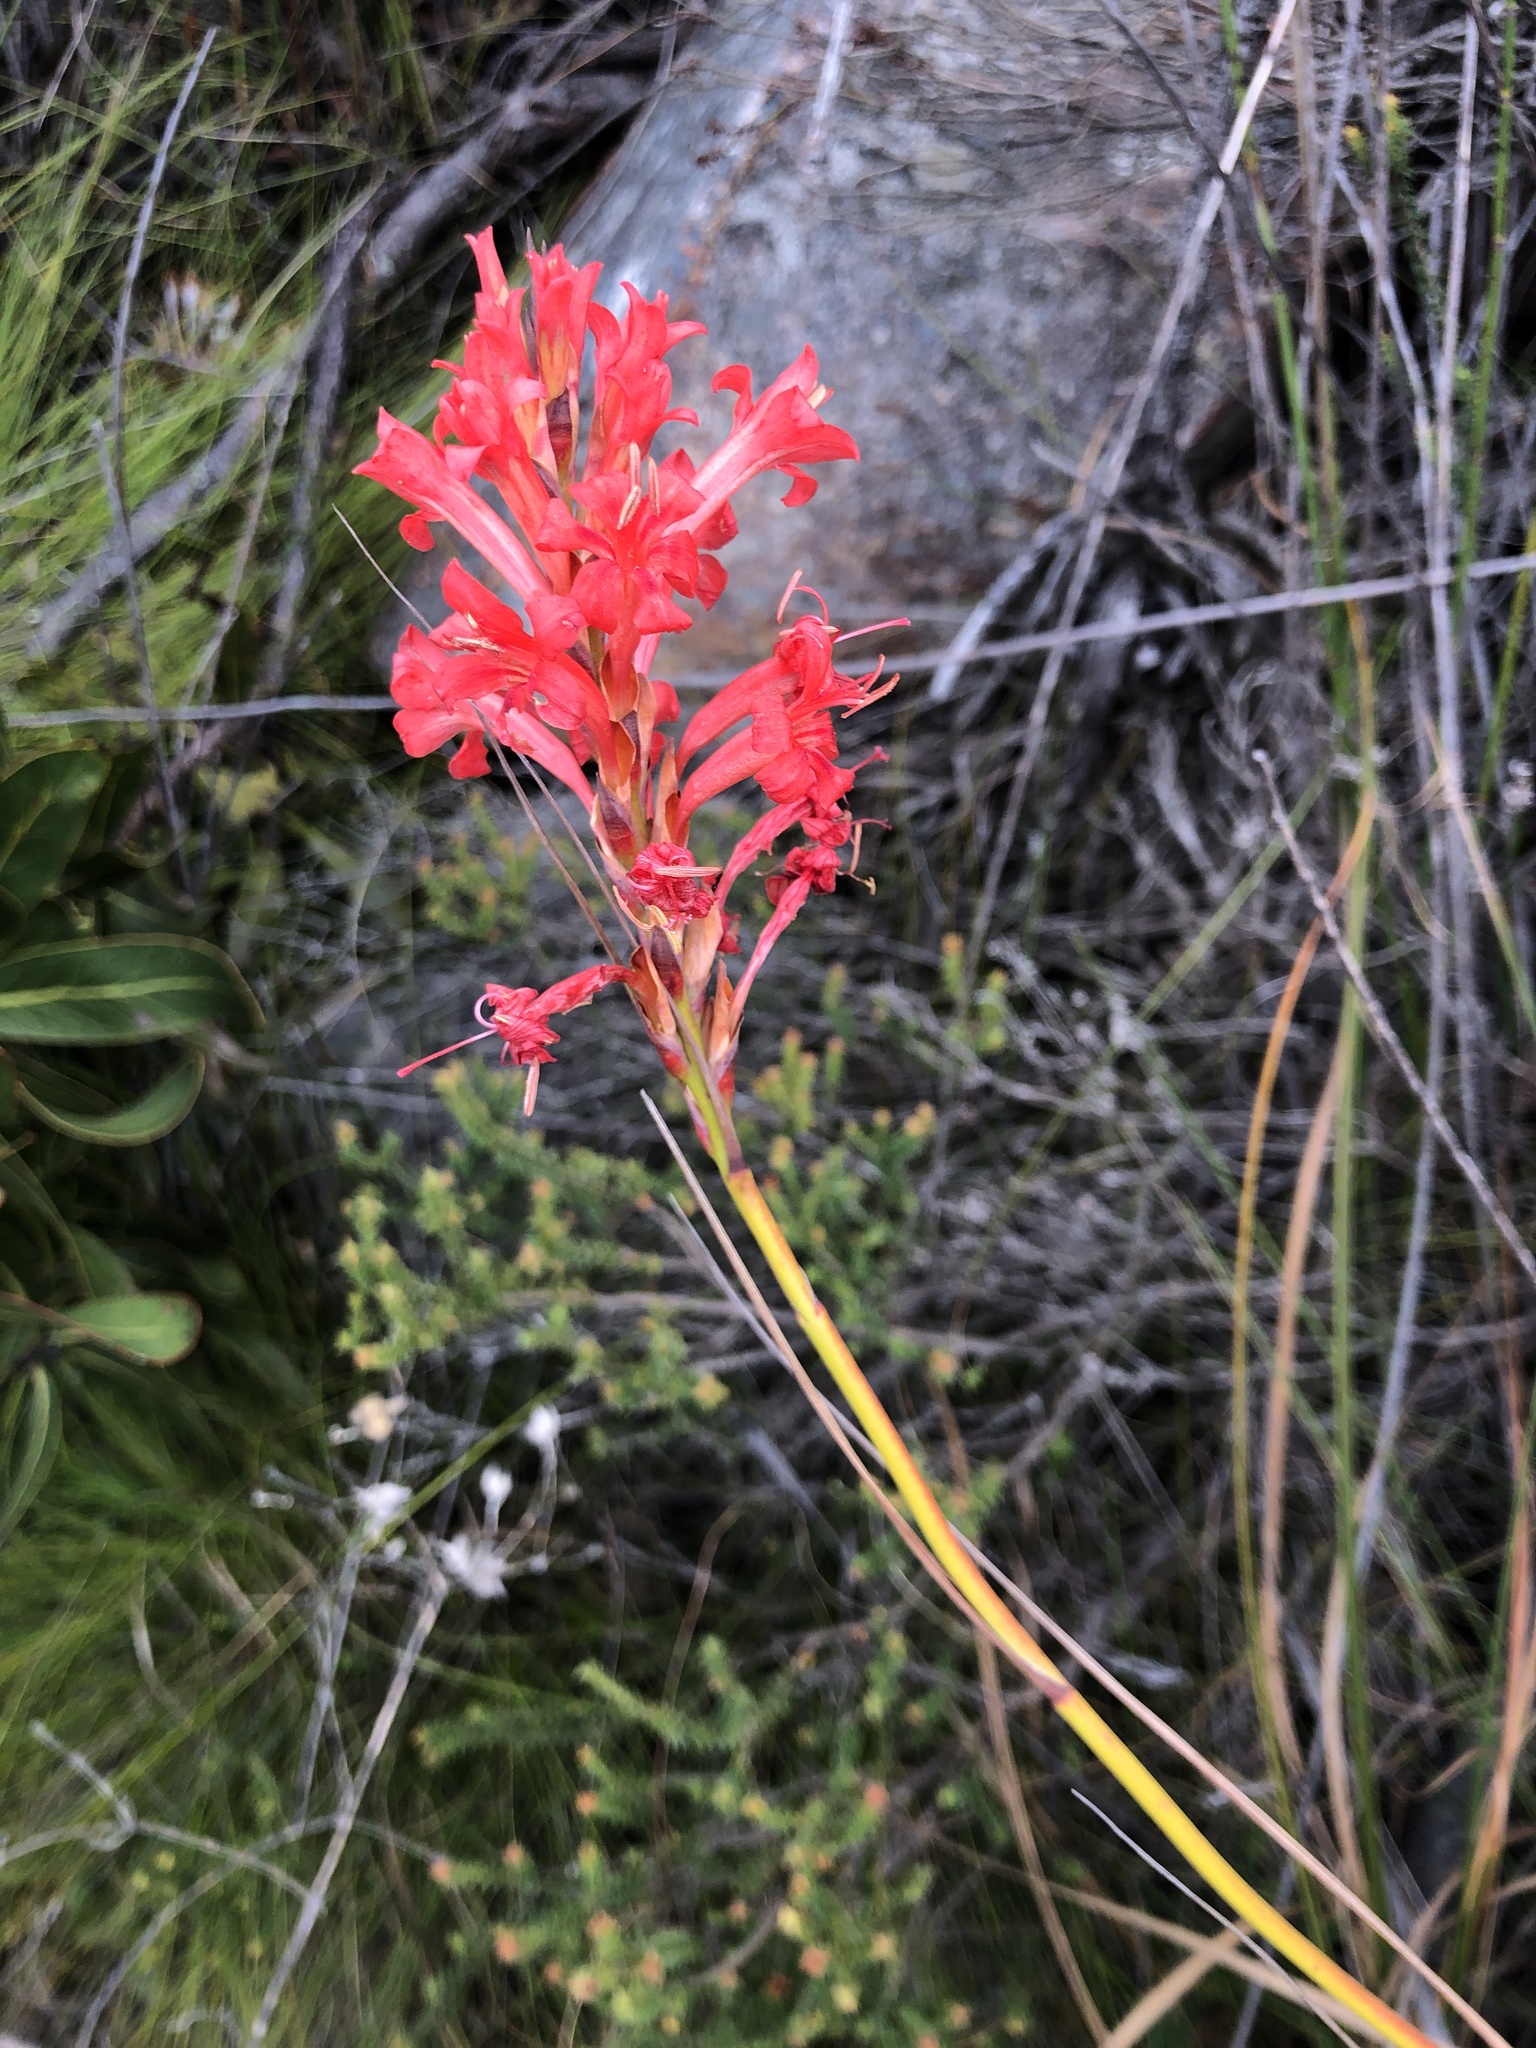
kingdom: Plantae
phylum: Tracheophyta
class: Liliopsida
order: Asparagales
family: Iridaceae
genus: Tritoniopsis
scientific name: Tritoniopsis triticea
